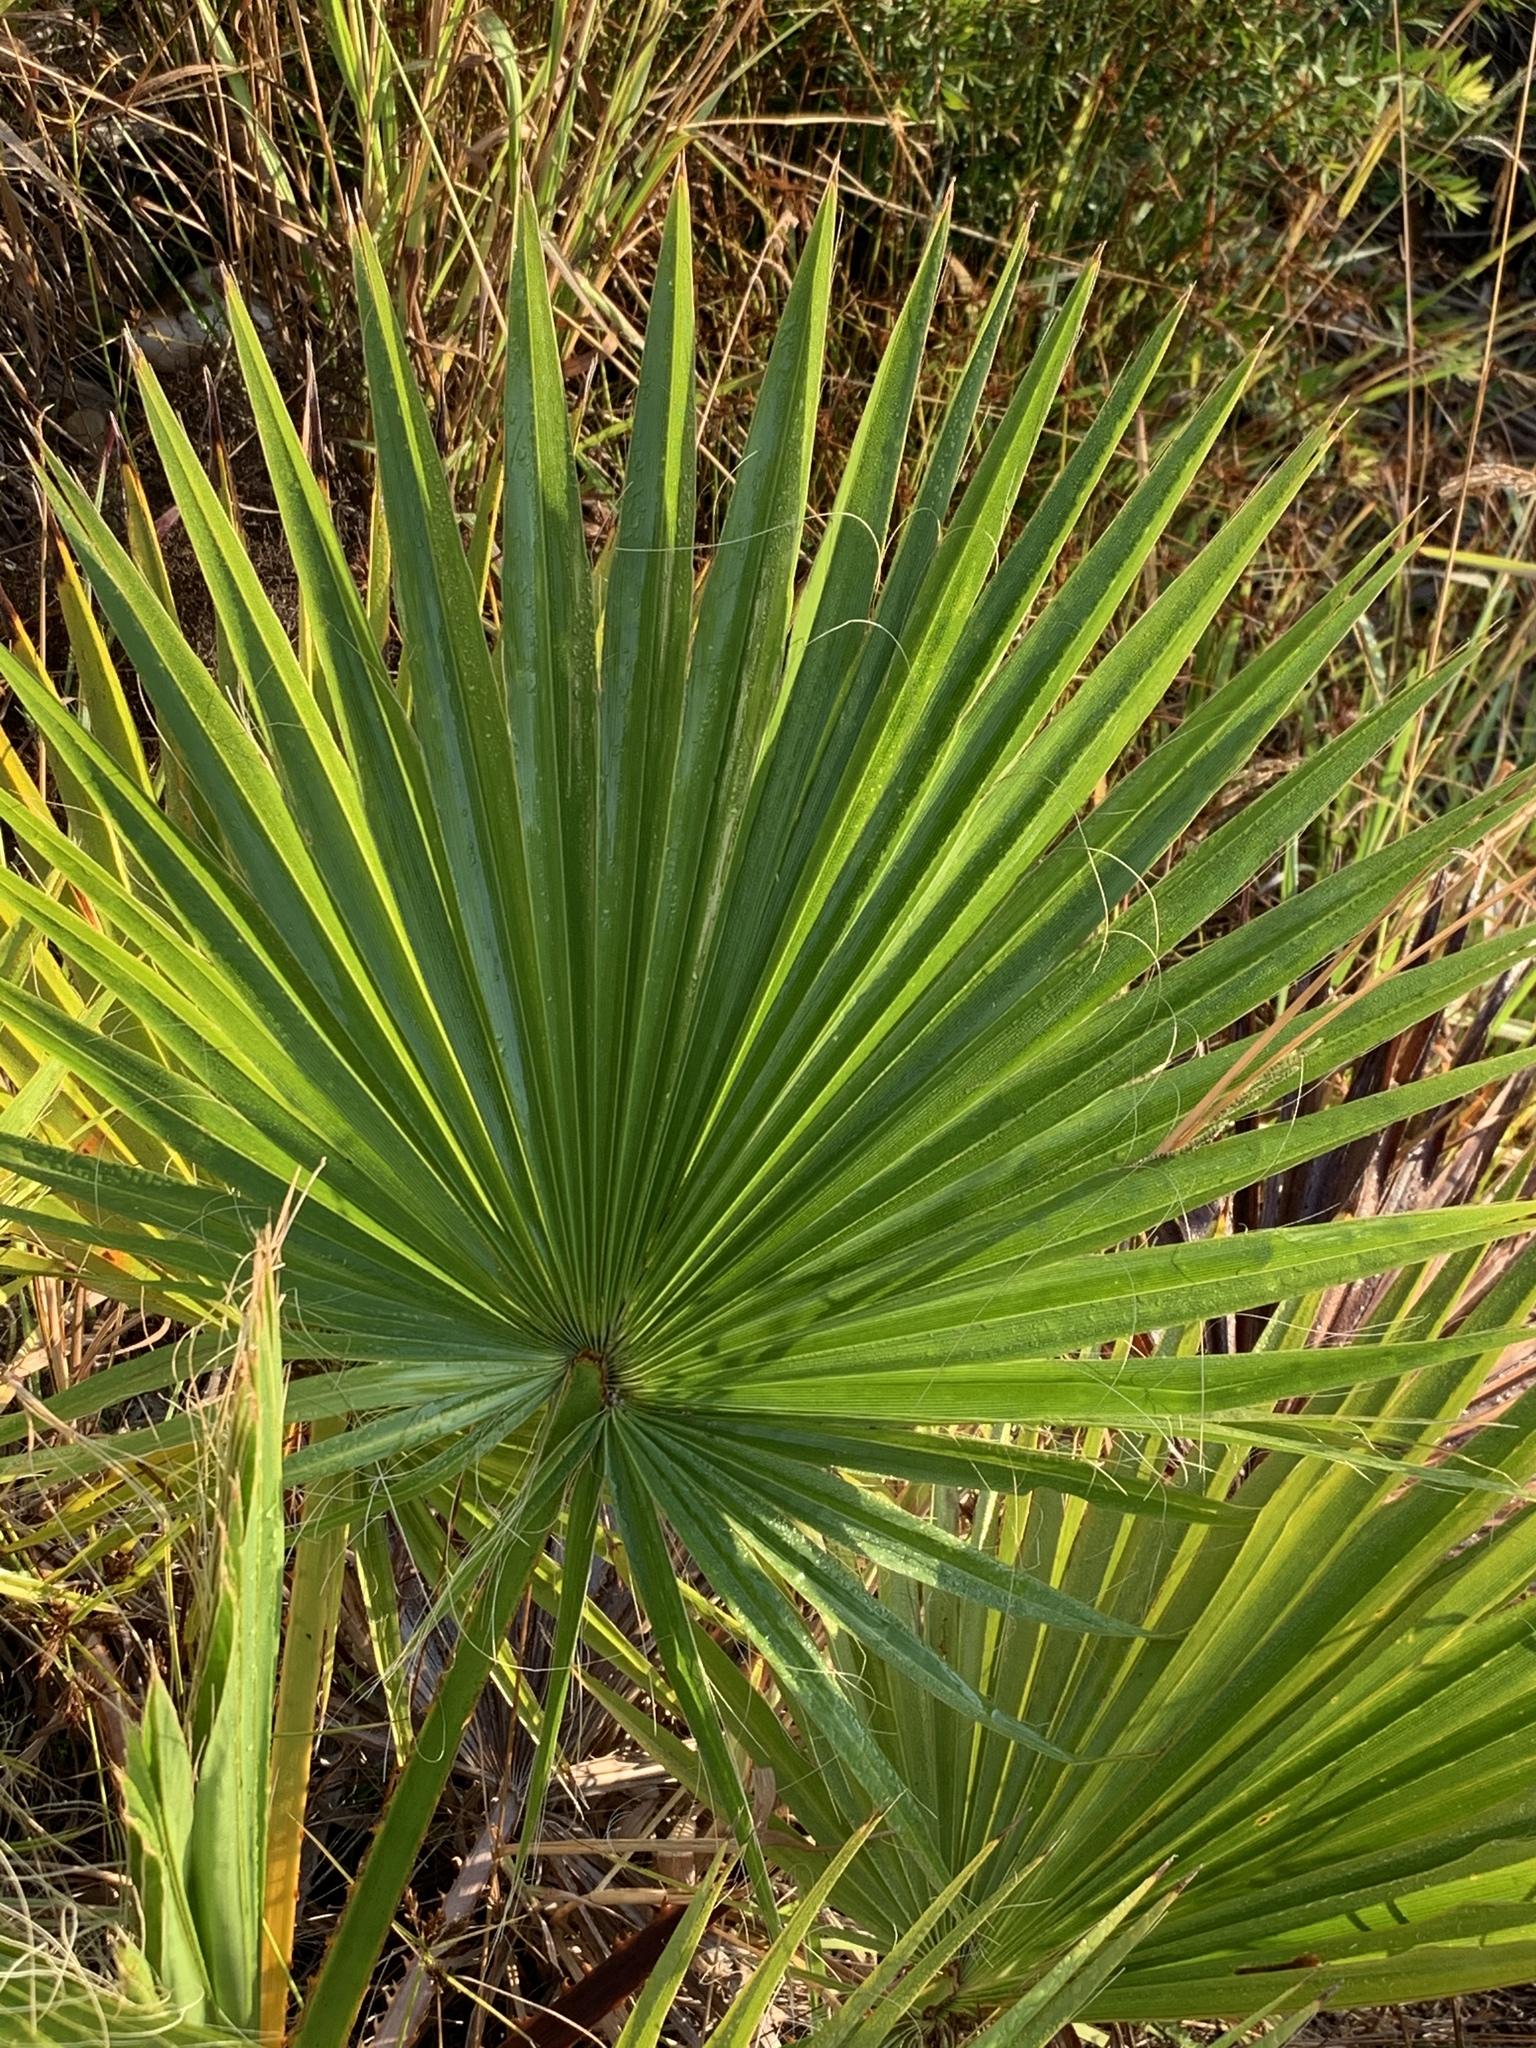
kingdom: Plantae
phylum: Tracheophyta
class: Liliopsida
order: Arecales
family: Arecaceae
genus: Washingtonia
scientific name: Washingtonia robusta
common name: Mexican fan palm
